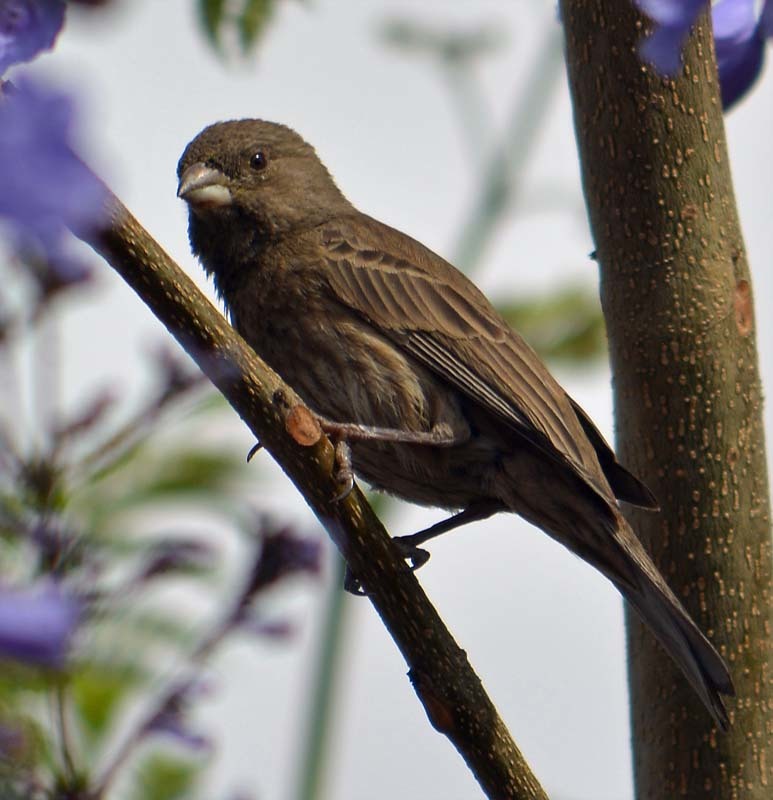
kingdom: Animalia
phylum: Chordata
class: Aves
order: Passeriformes
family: Fringillidae
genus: Haemorhous
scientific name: Haemorhous mexicanus
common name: House finch
